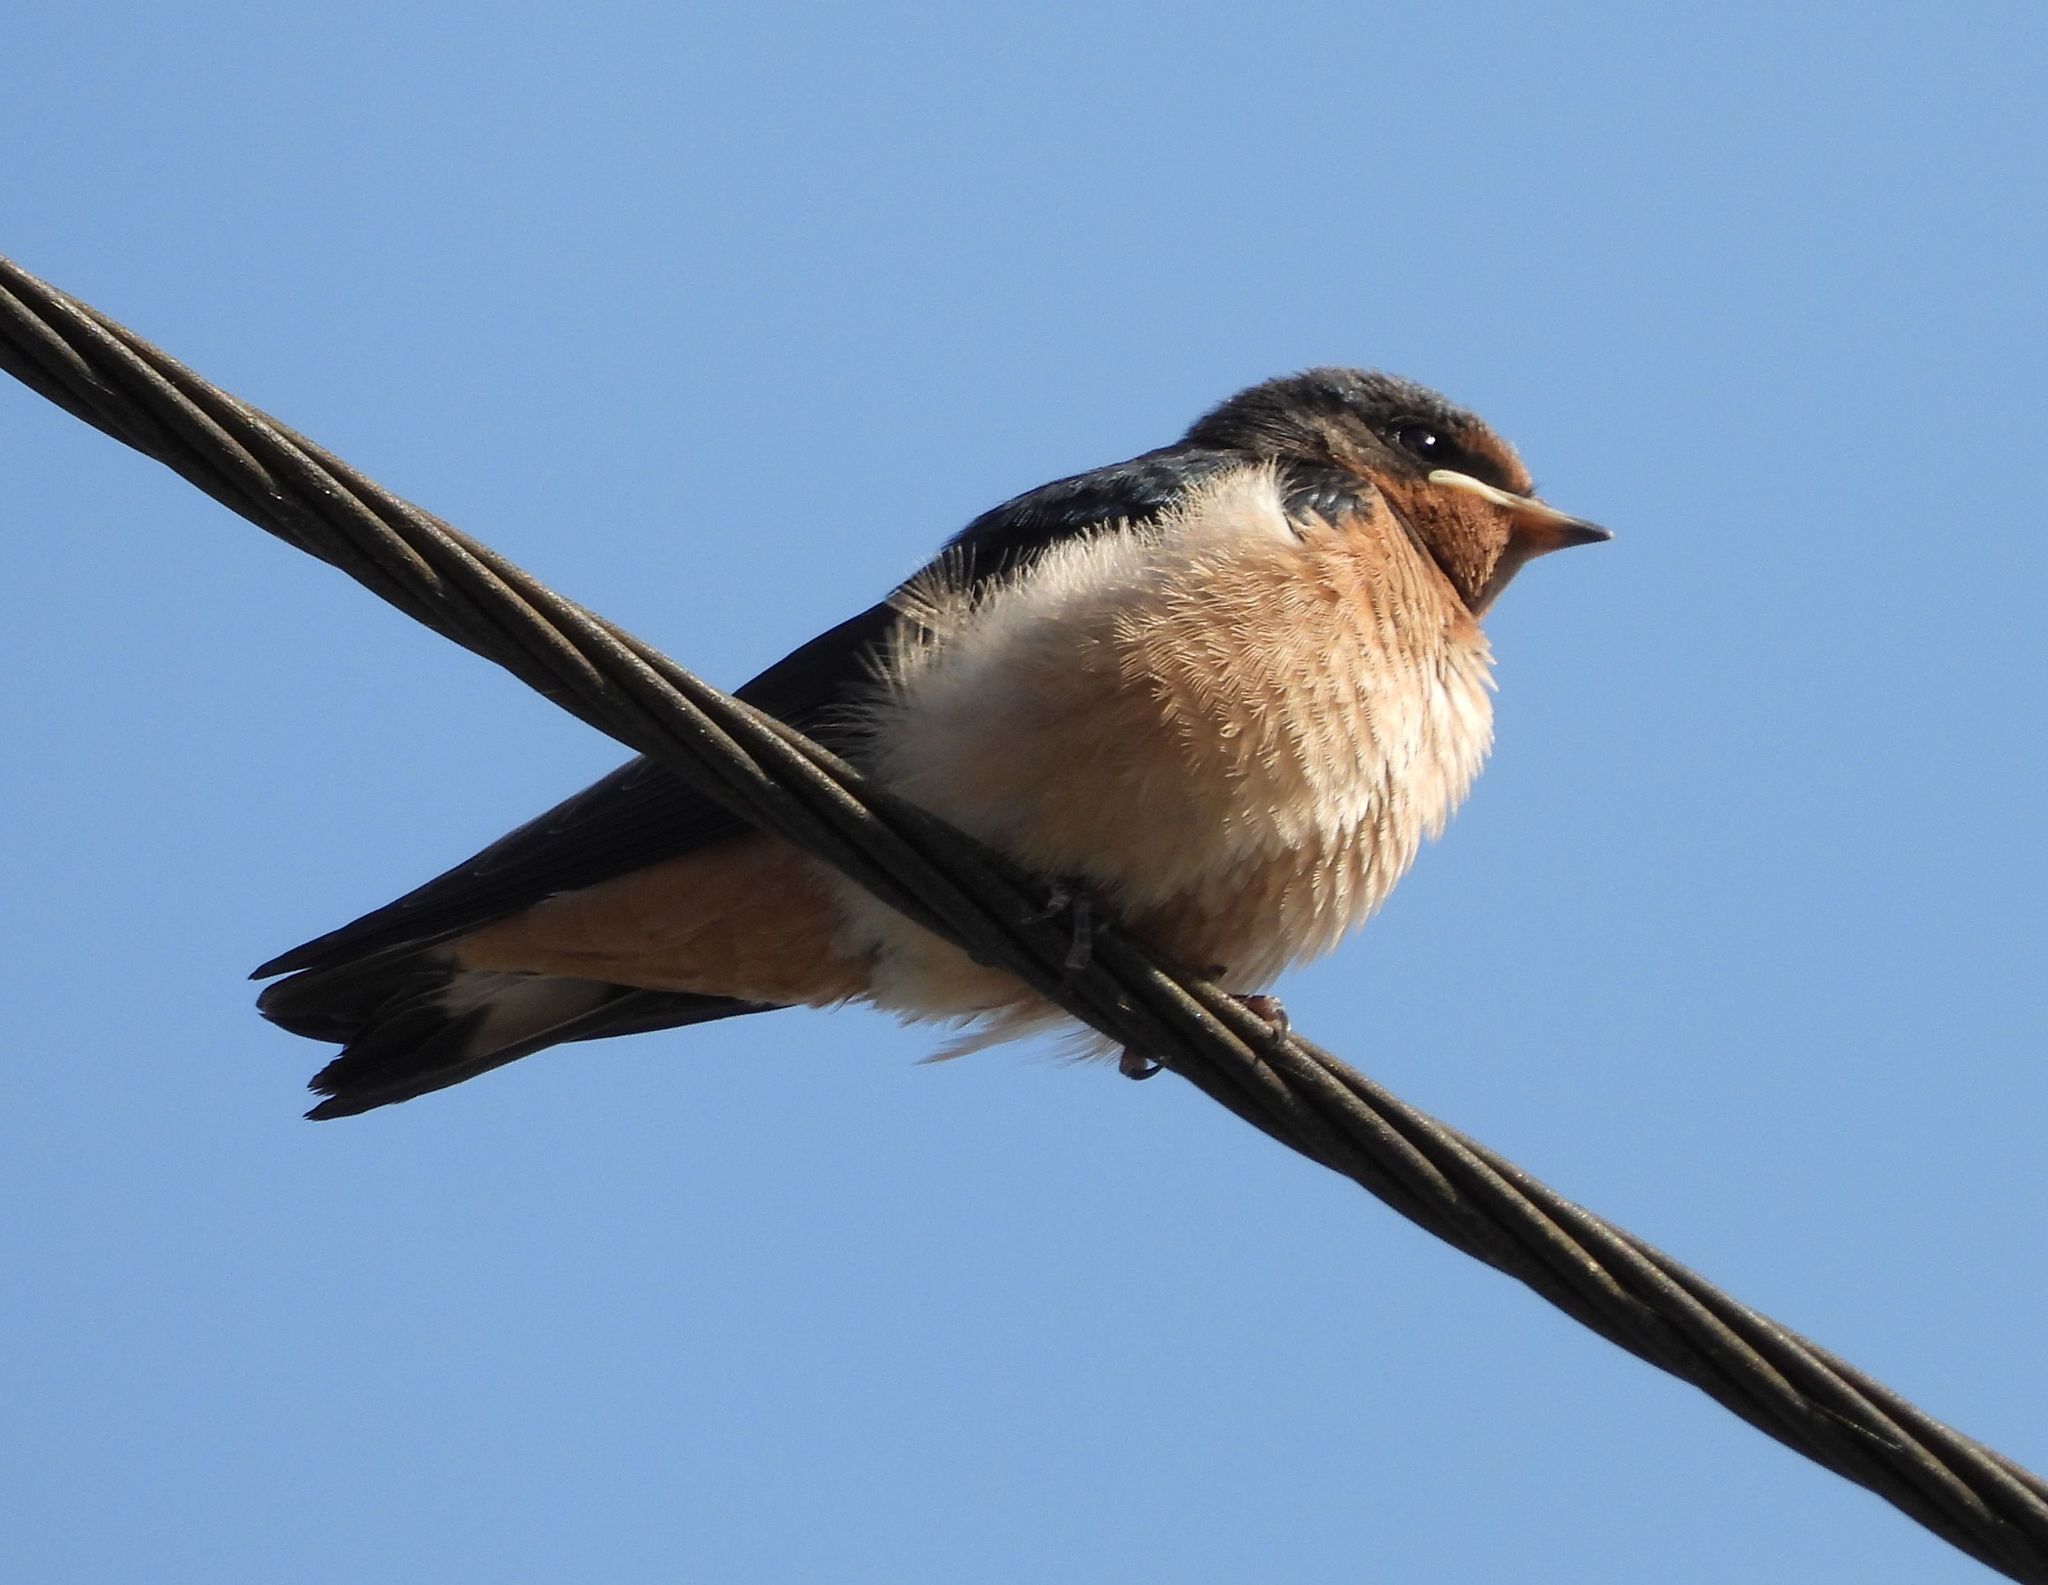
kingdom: Animalia
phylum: Chordata
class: Aves
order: Passeriformes
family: Hirundinidae
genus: Hirundo
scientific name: Hirundo rustica
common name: Barn swallow
